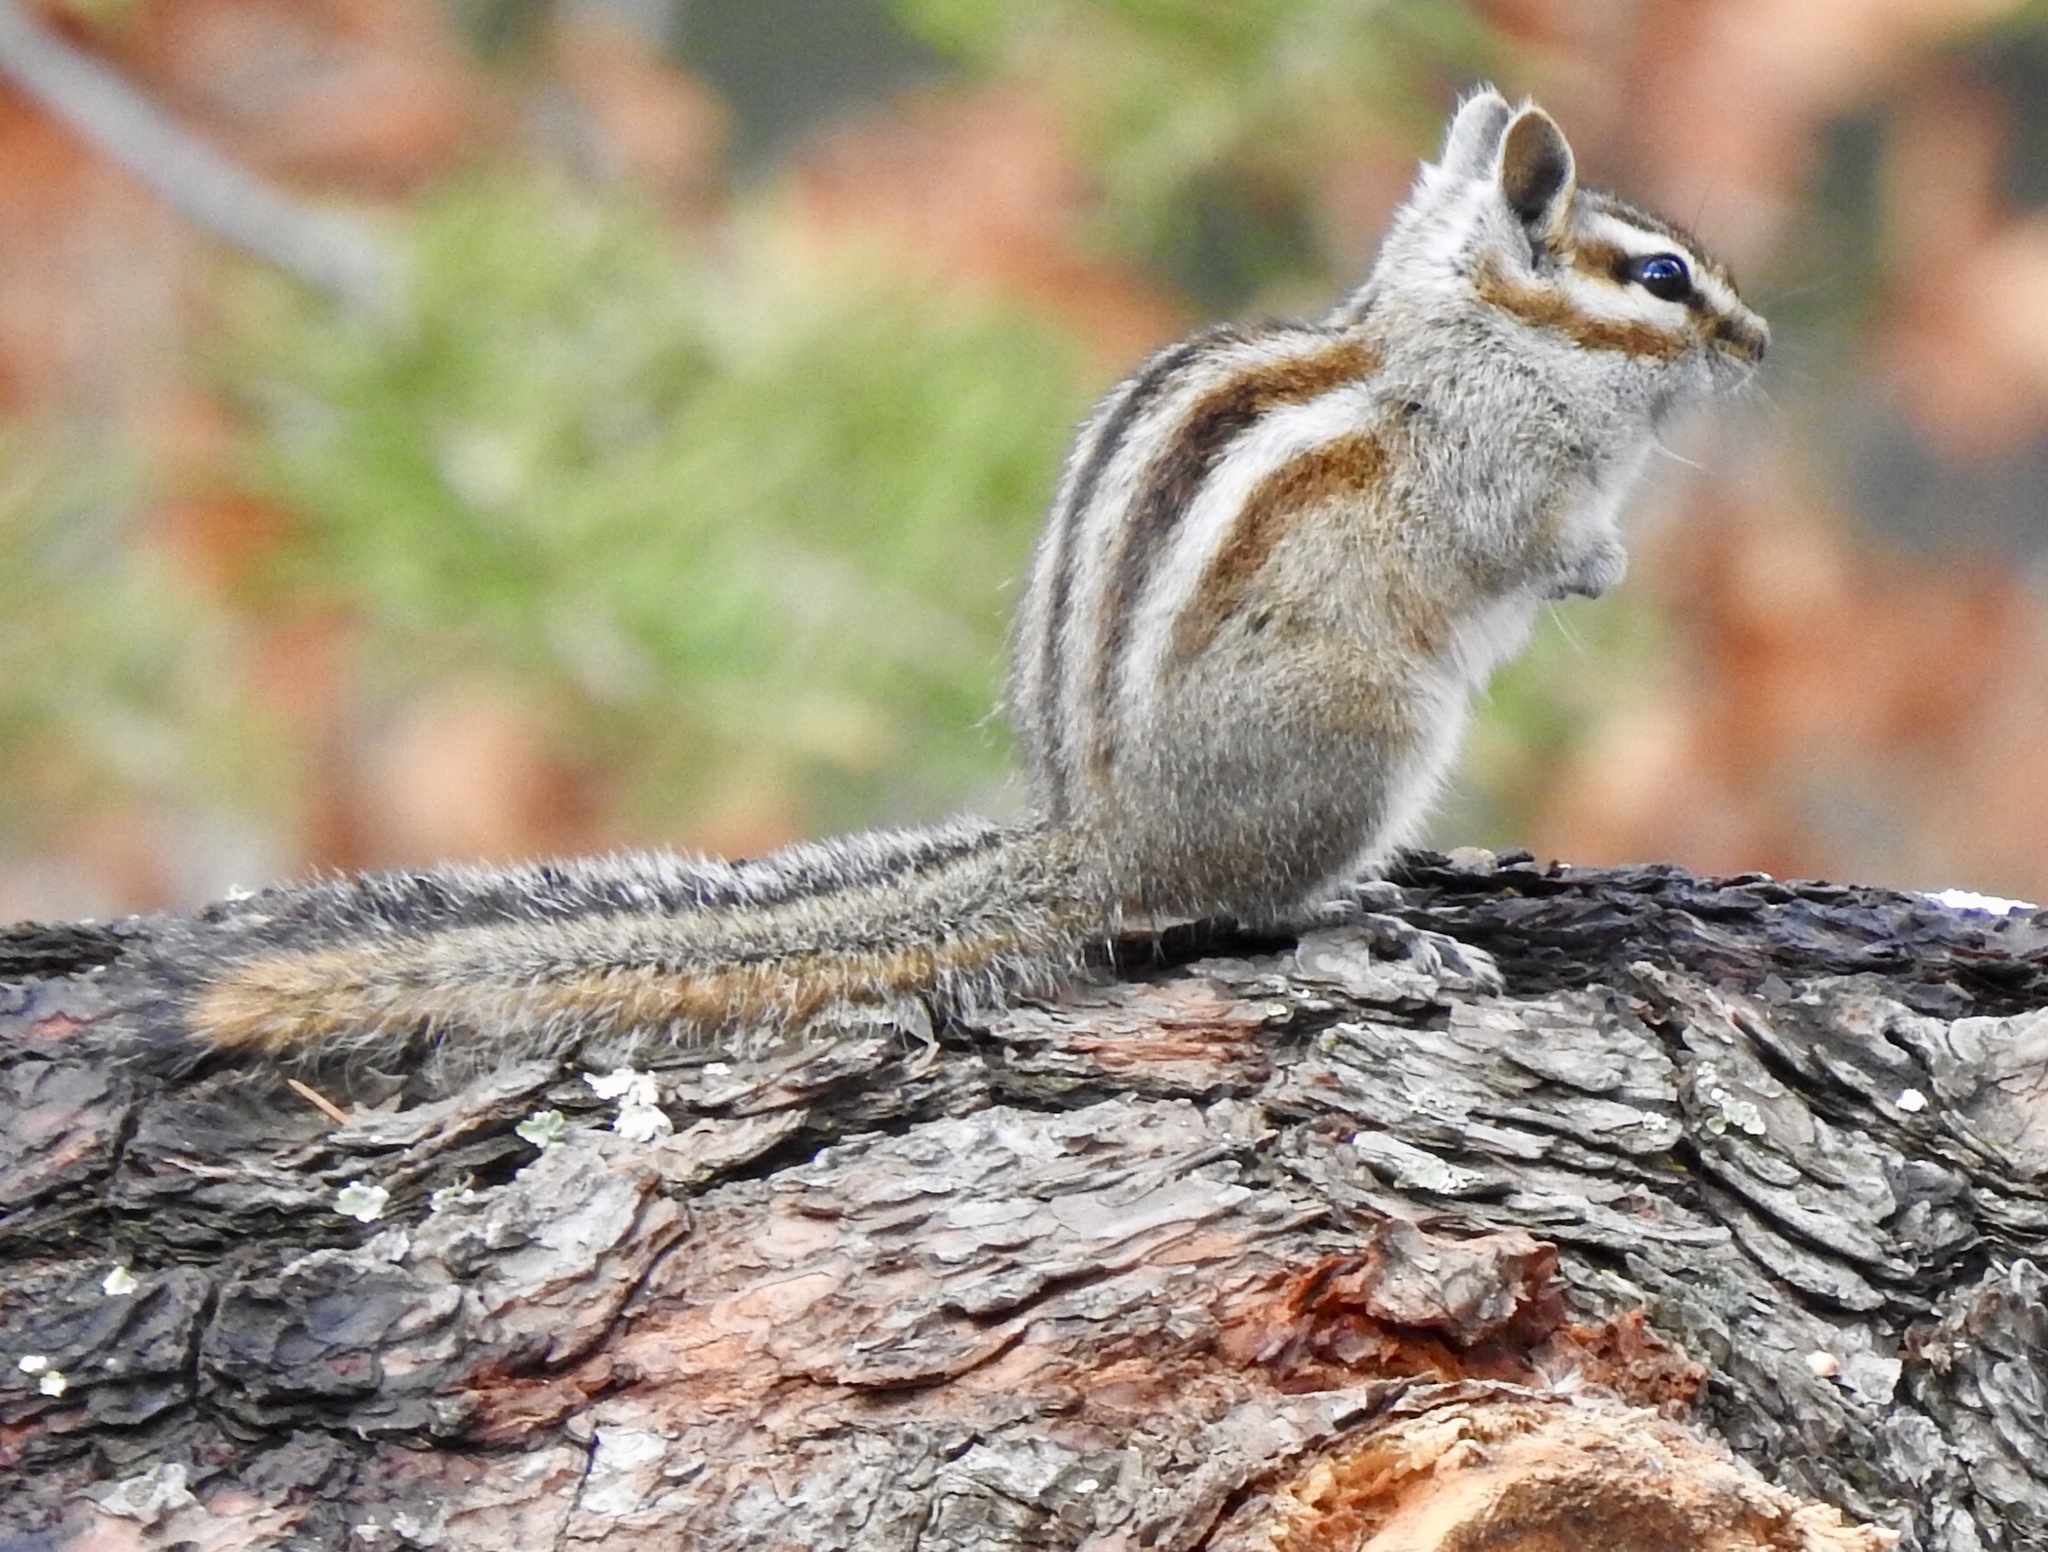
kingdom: Animalia
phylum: Chordata
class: Mammalia
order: Rodentia
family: Sciuridae
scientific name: Sciuridae
